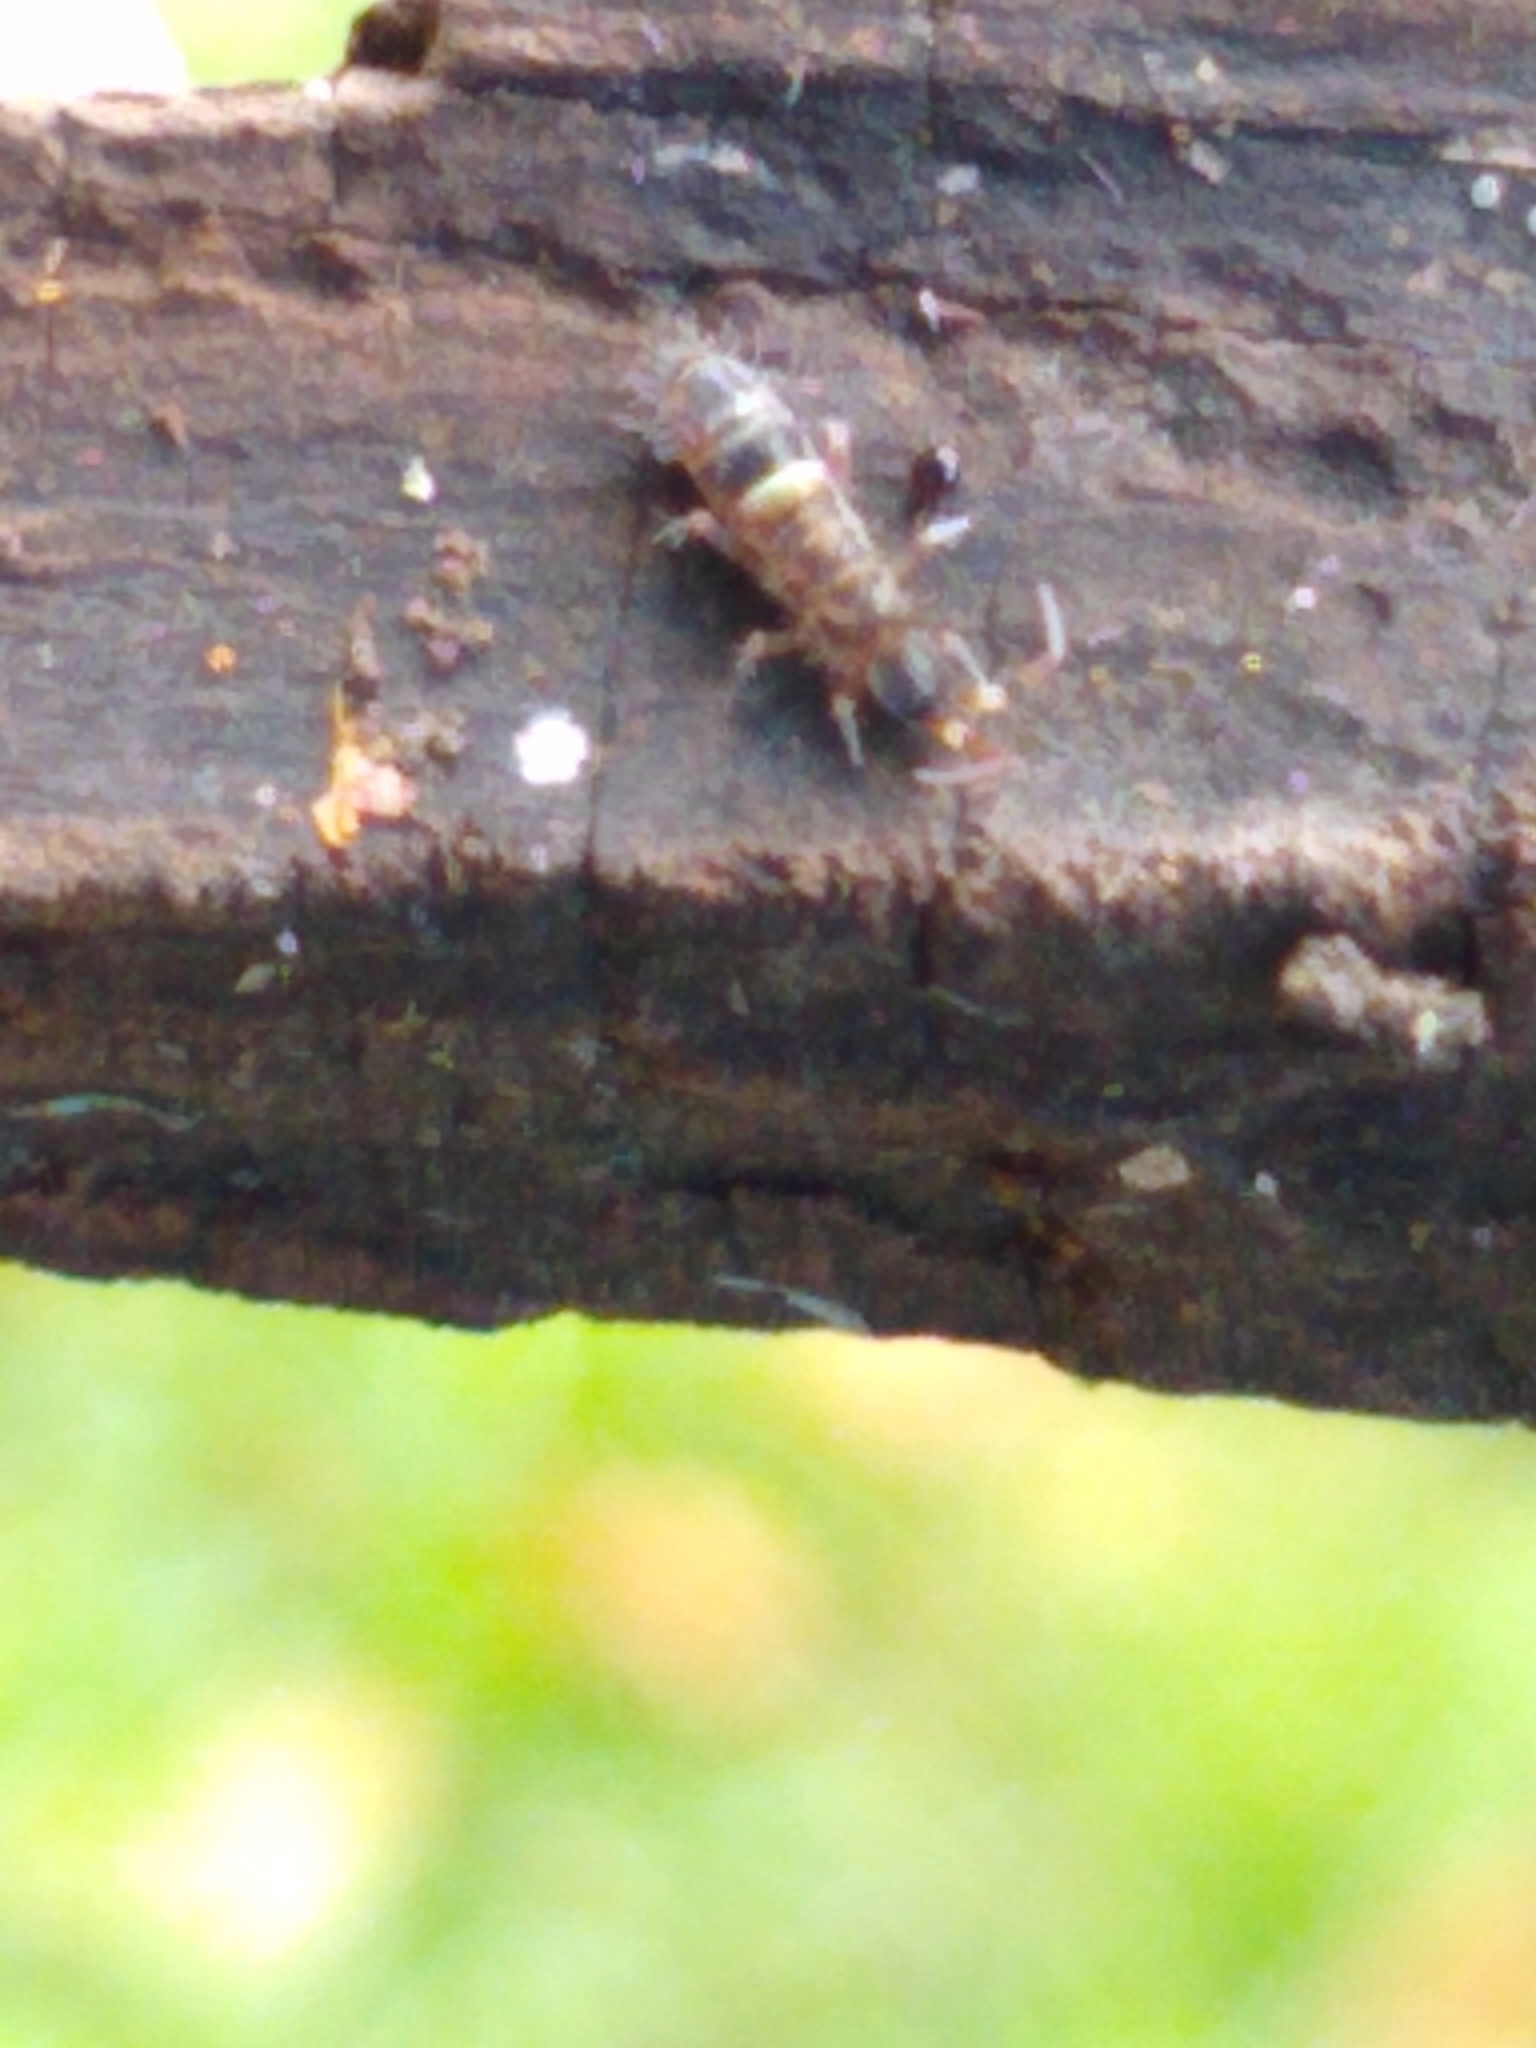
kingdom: Animalia
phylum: Arthropoda
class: Collembola
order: Entomobryomorpha
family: Orchesellidae
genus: Orchesella
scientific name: Orchesella cincta
